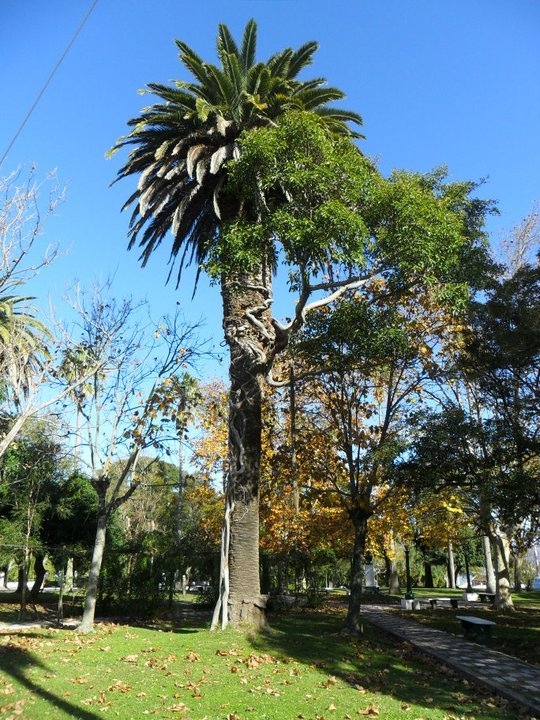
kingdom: Plantae
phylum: Tracheophyta
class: Magnoliopsida
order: Rosales
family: Moraceae
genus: Ficus
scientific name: Ficus luschnathiana
